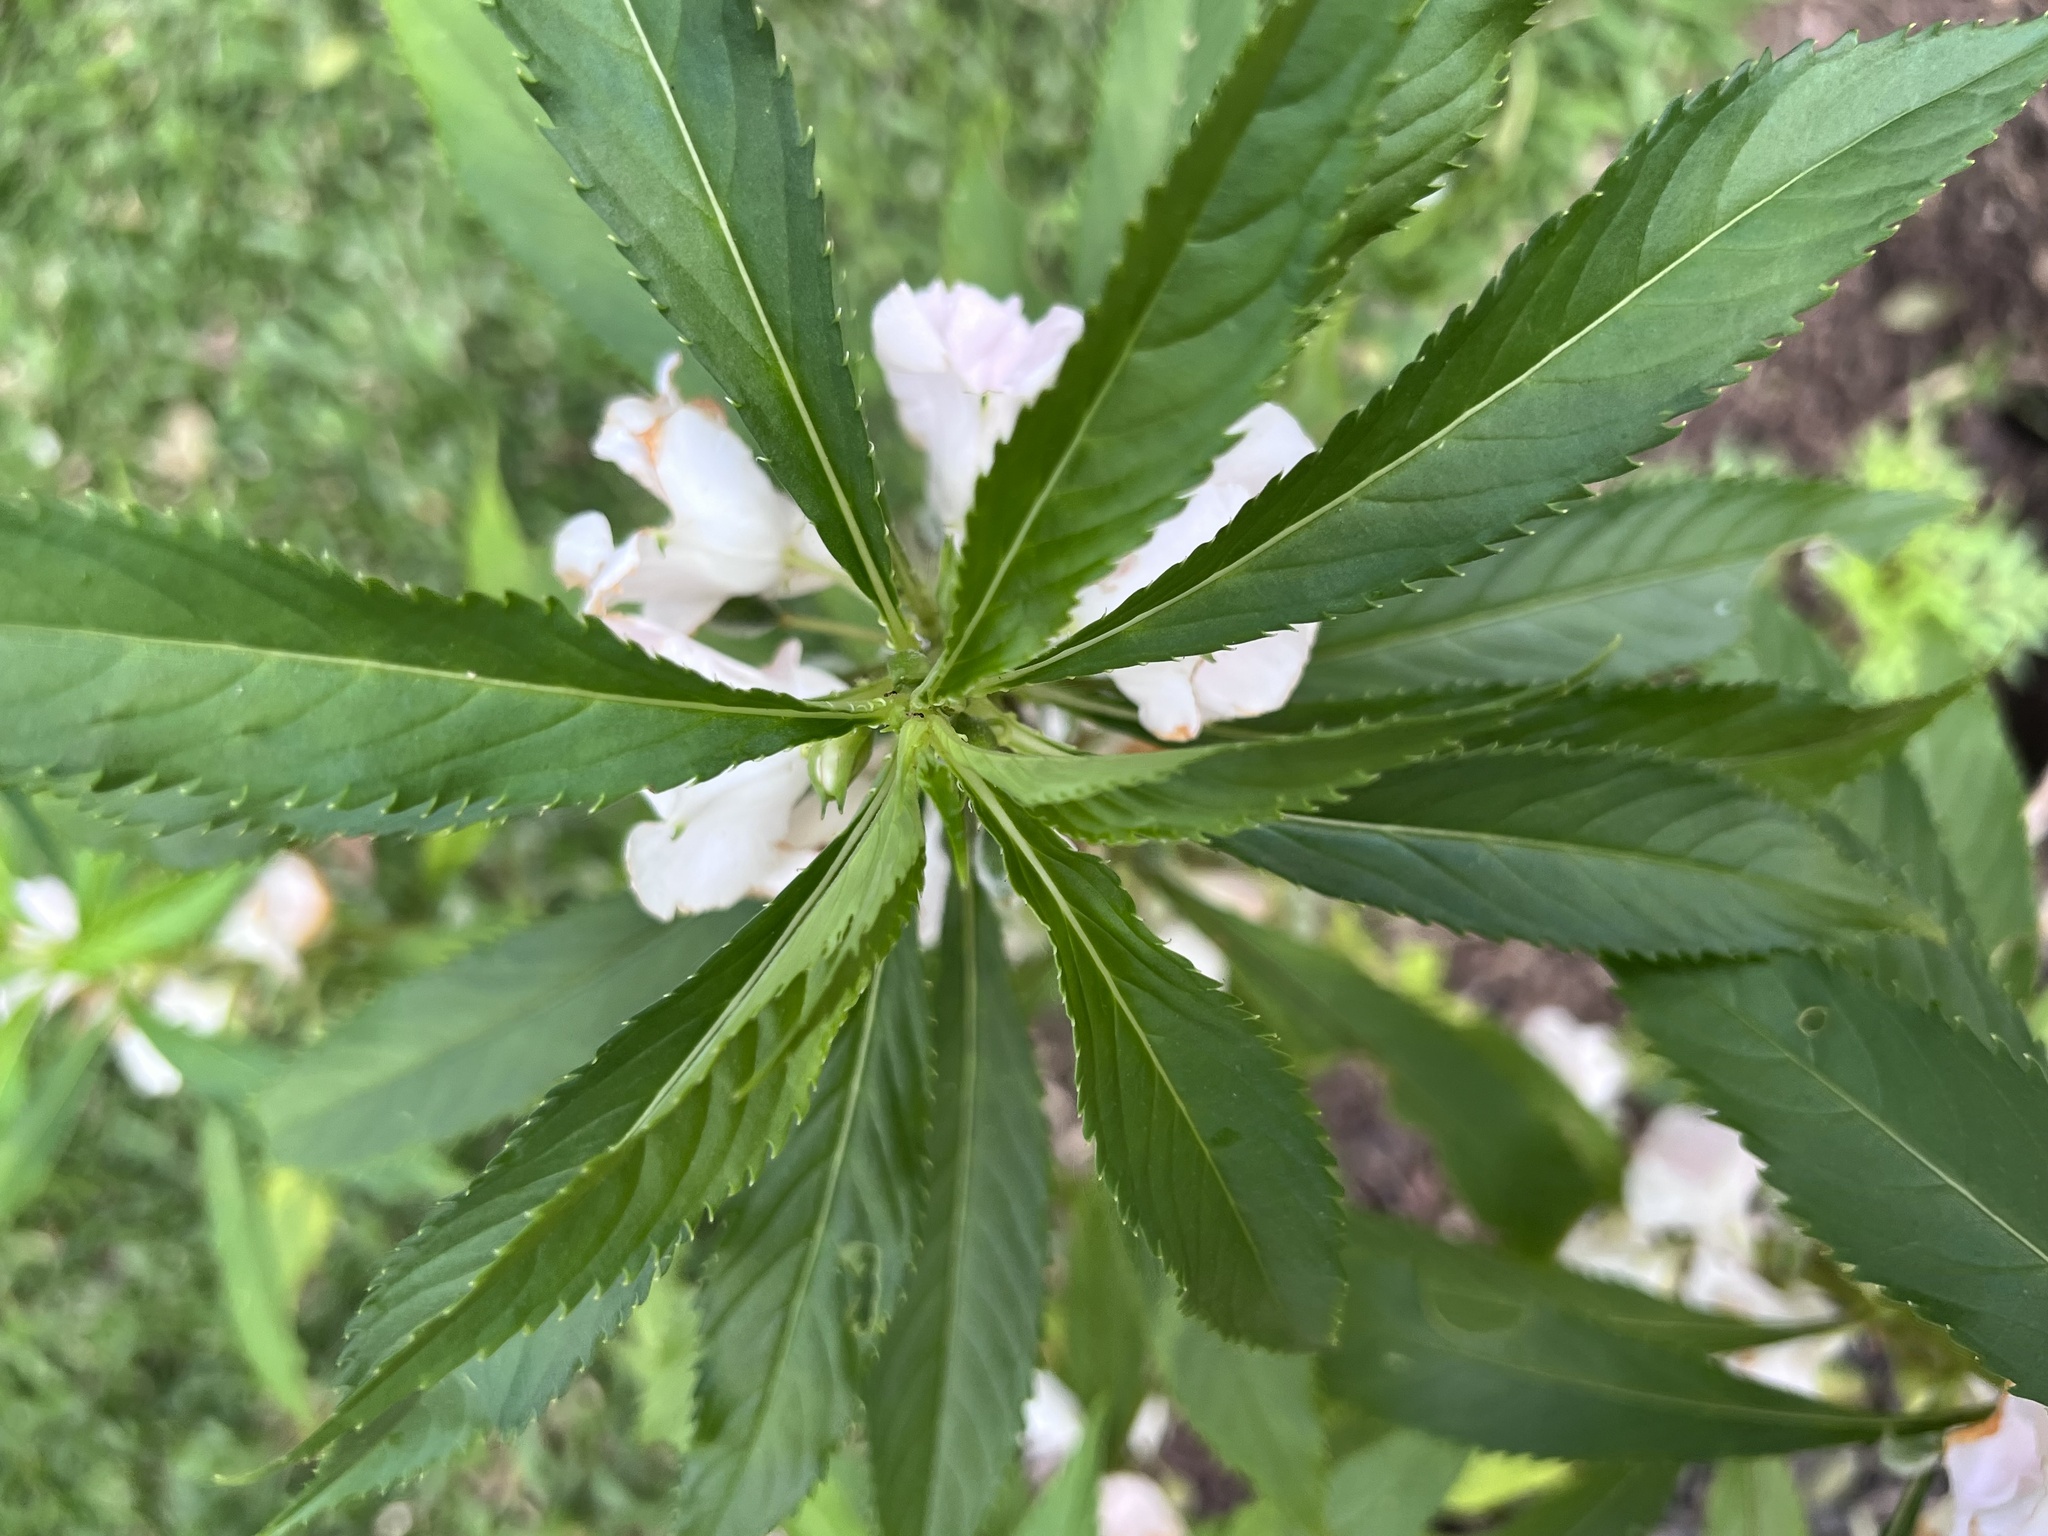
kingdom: Plantae
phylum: Tracheophyta
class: Magnoliopsida
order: Ericales
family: Balsaminaceae
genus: Impatiens
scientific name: Impatiens balsamina
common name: Balsam
